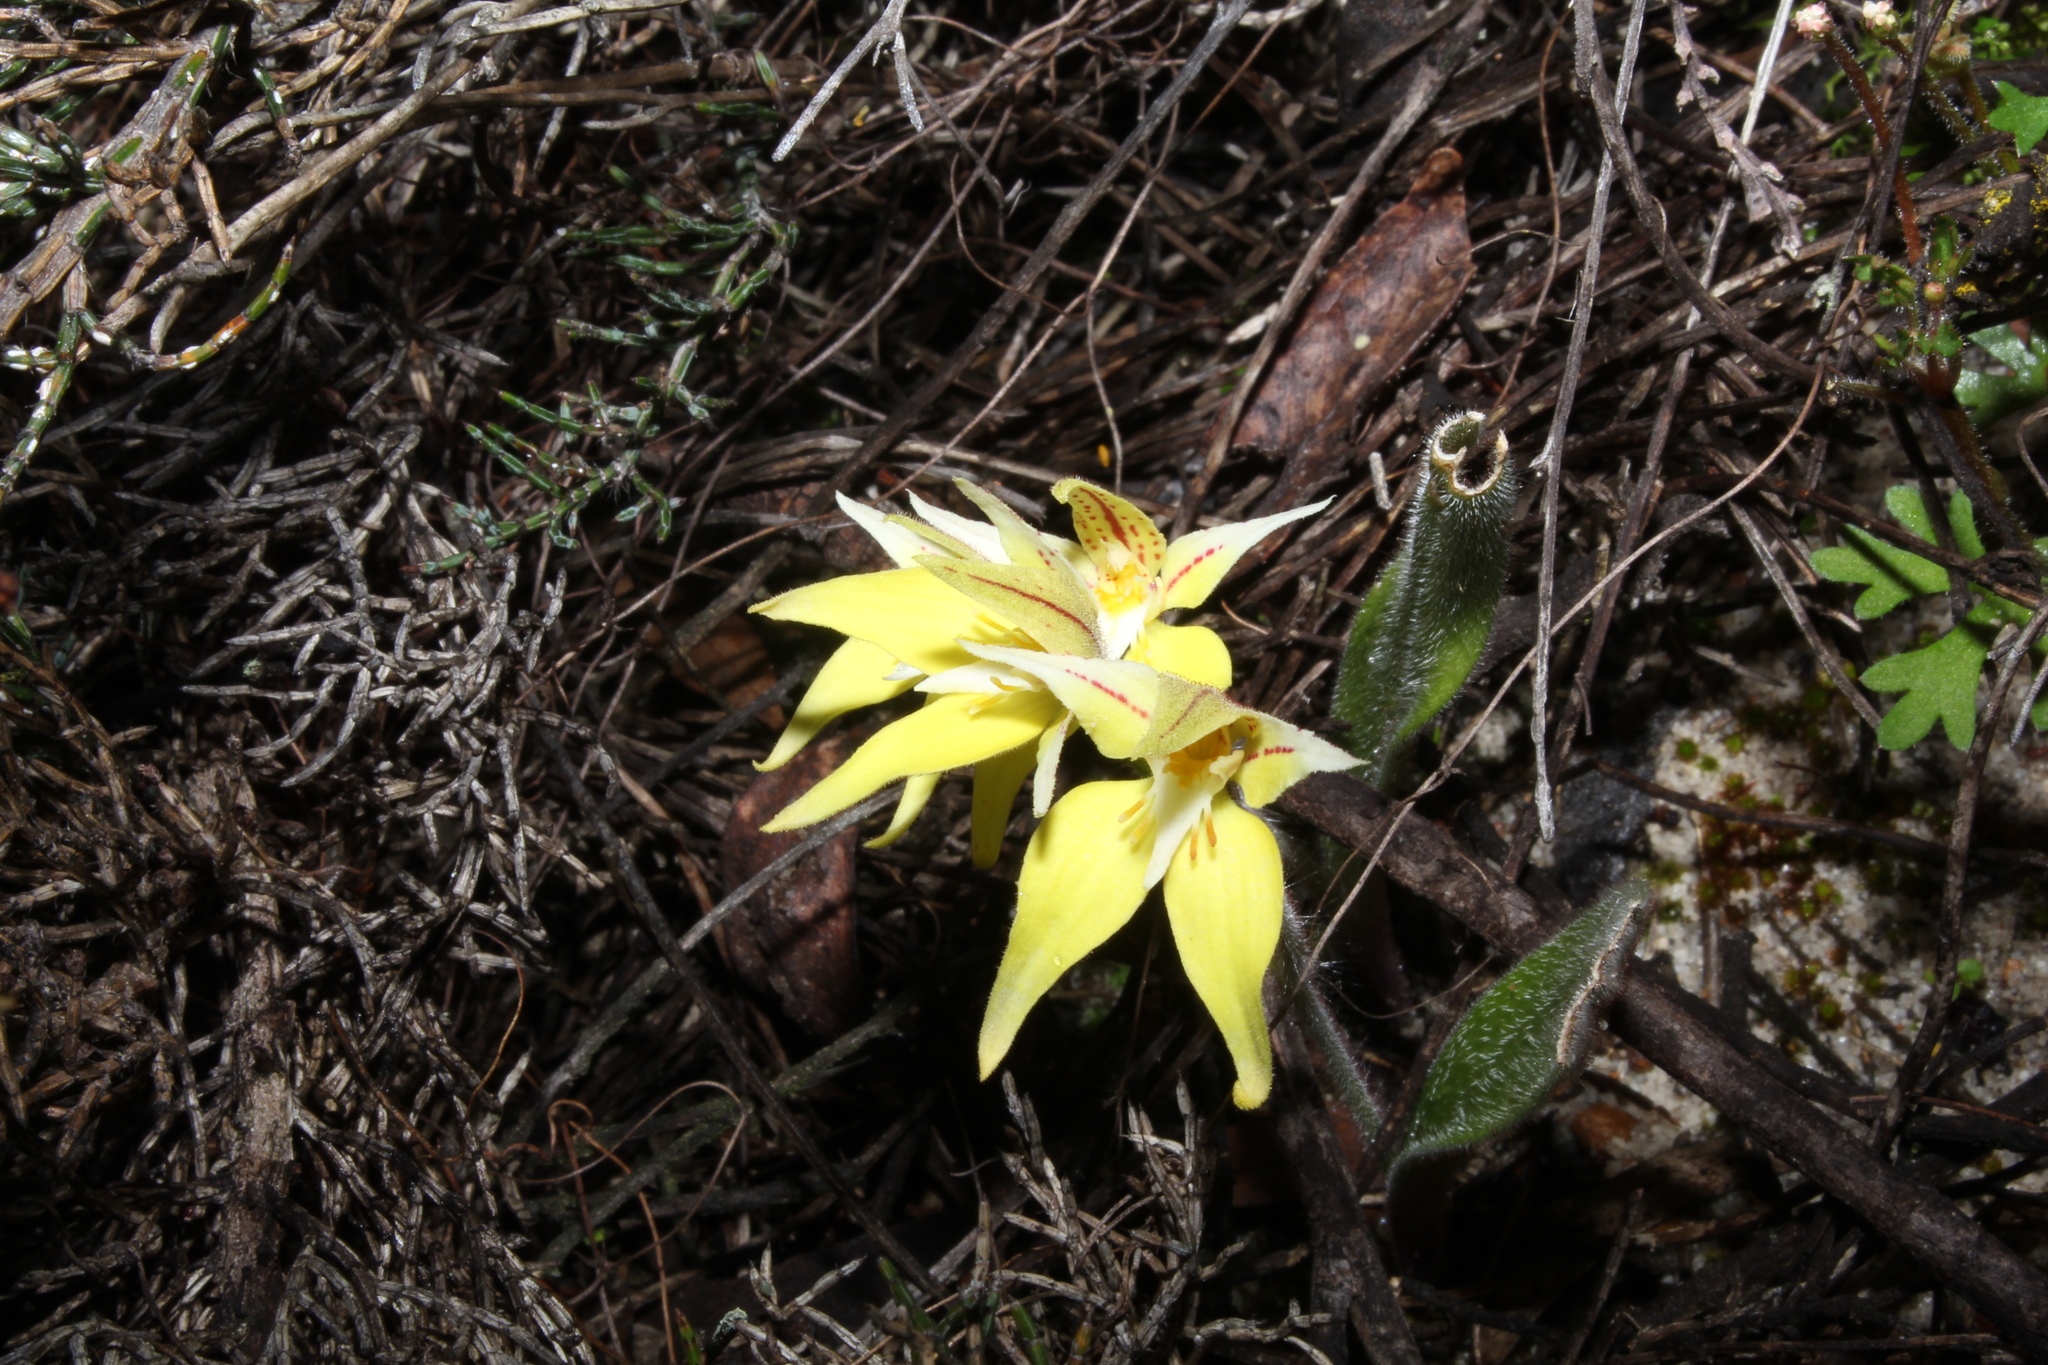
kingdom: Plantae
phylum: Tracheophyta
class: Liliopsida
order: Asparagales
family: Orchidaceae
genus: Caladenia
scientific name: Caladenia flava
